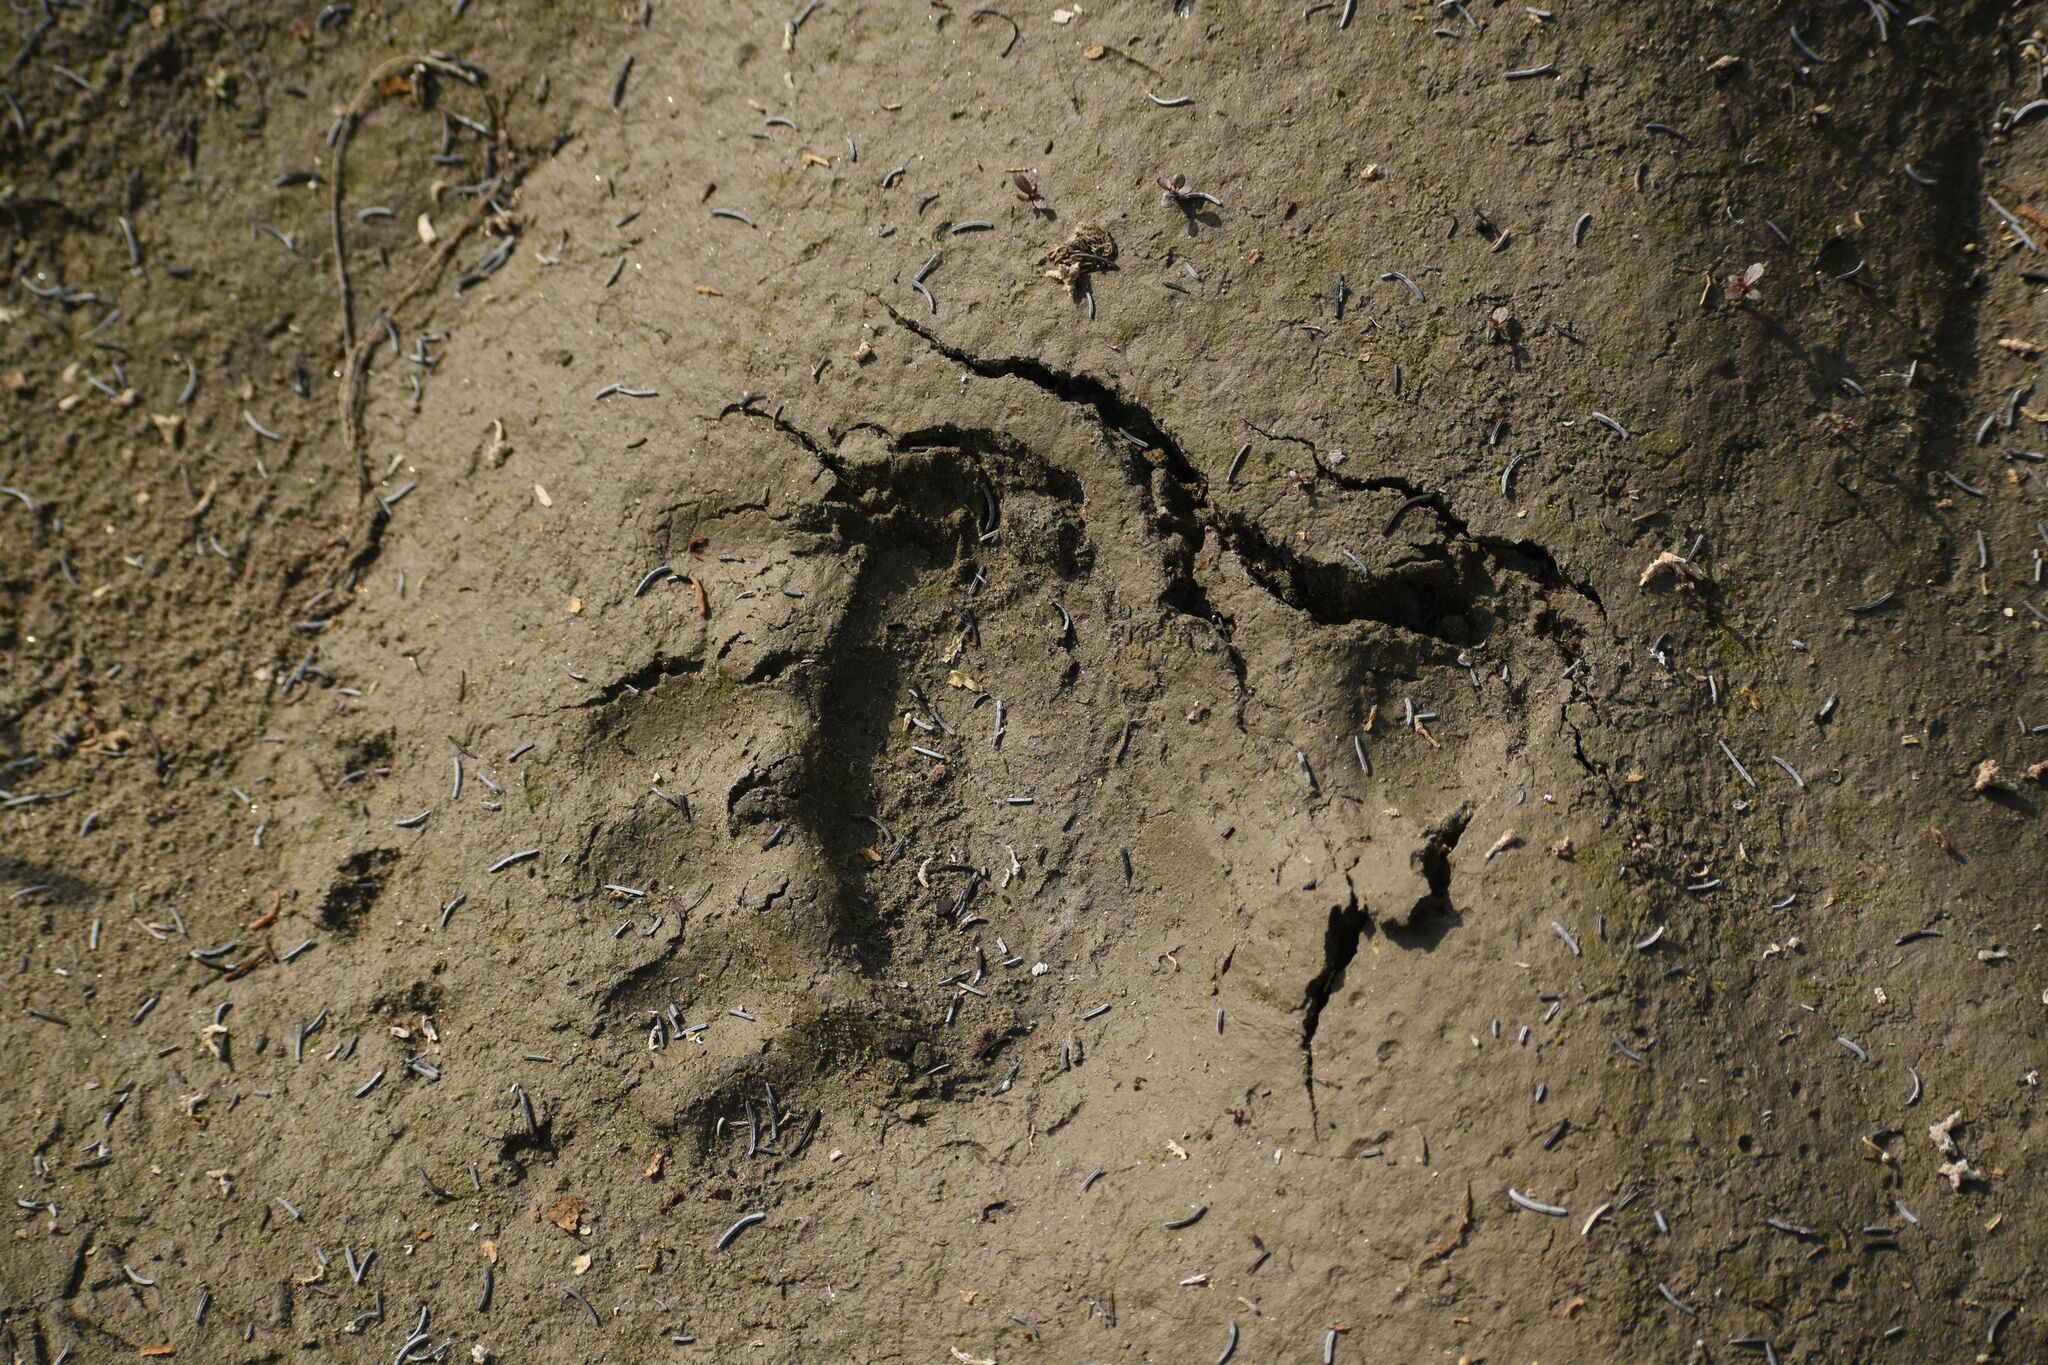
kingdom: Animalia
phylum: Chordata
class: Mammalia
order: Carnivora
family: Ursidae
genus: Ursus
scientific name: Ursus arctos
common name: Brown bear
